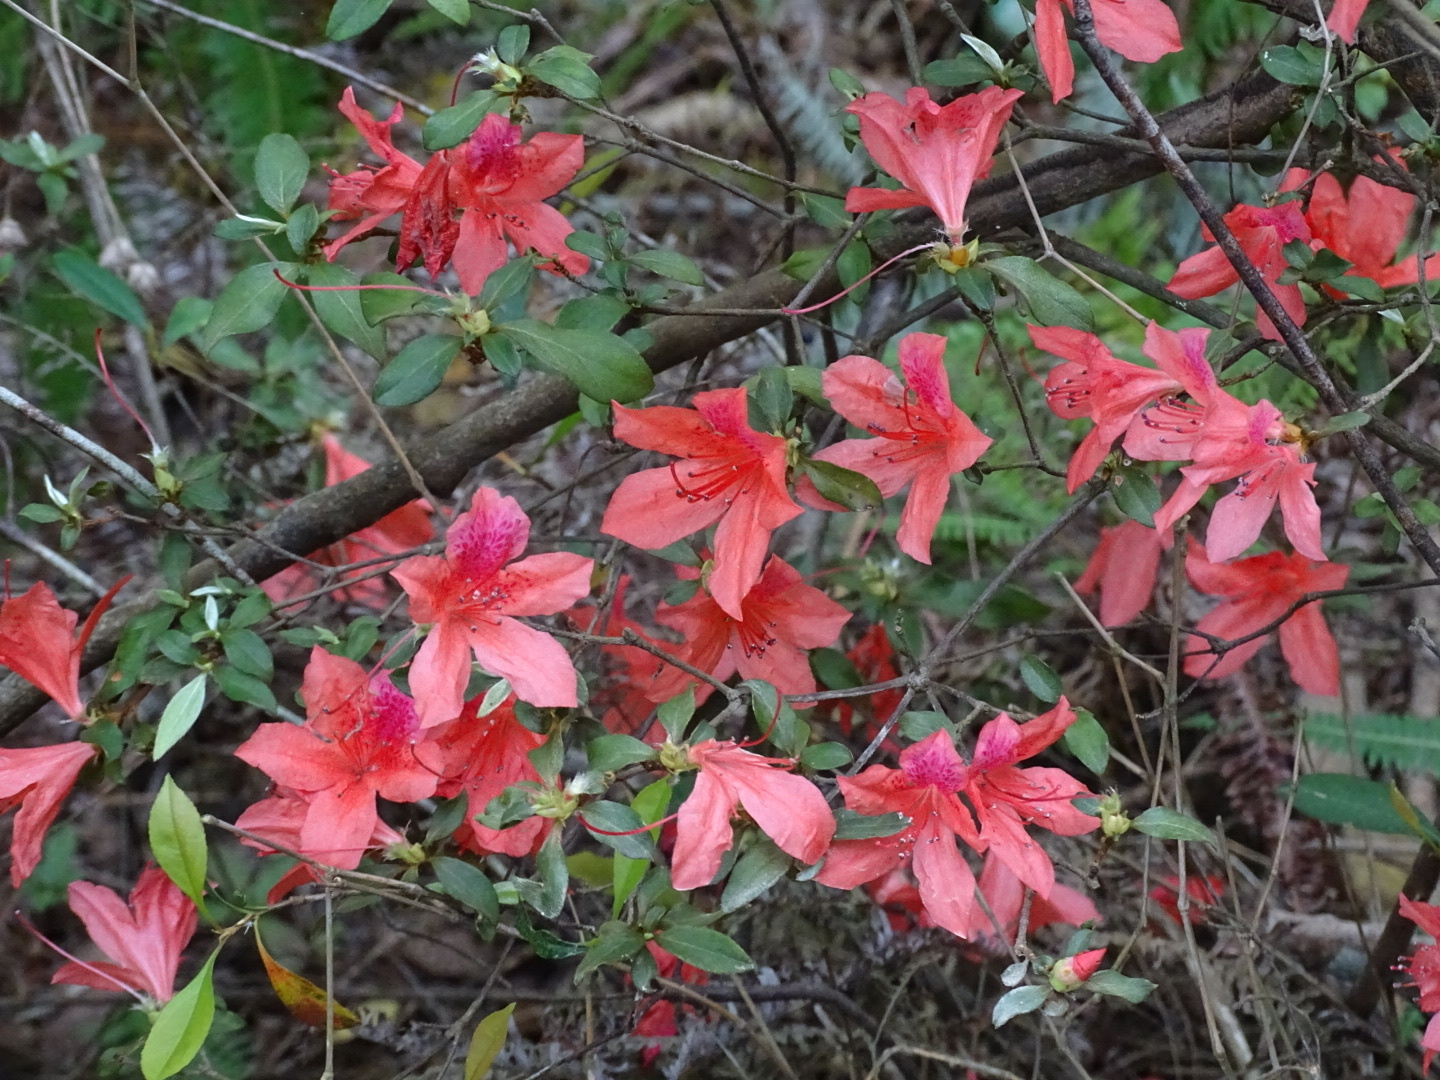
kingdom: Plantae
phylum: Tracheophyta
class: Magnoliopsida
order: Ericales
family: Ericaceae
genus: Rhododendron
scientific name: Rhododendron simsii
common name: Rhododendron
